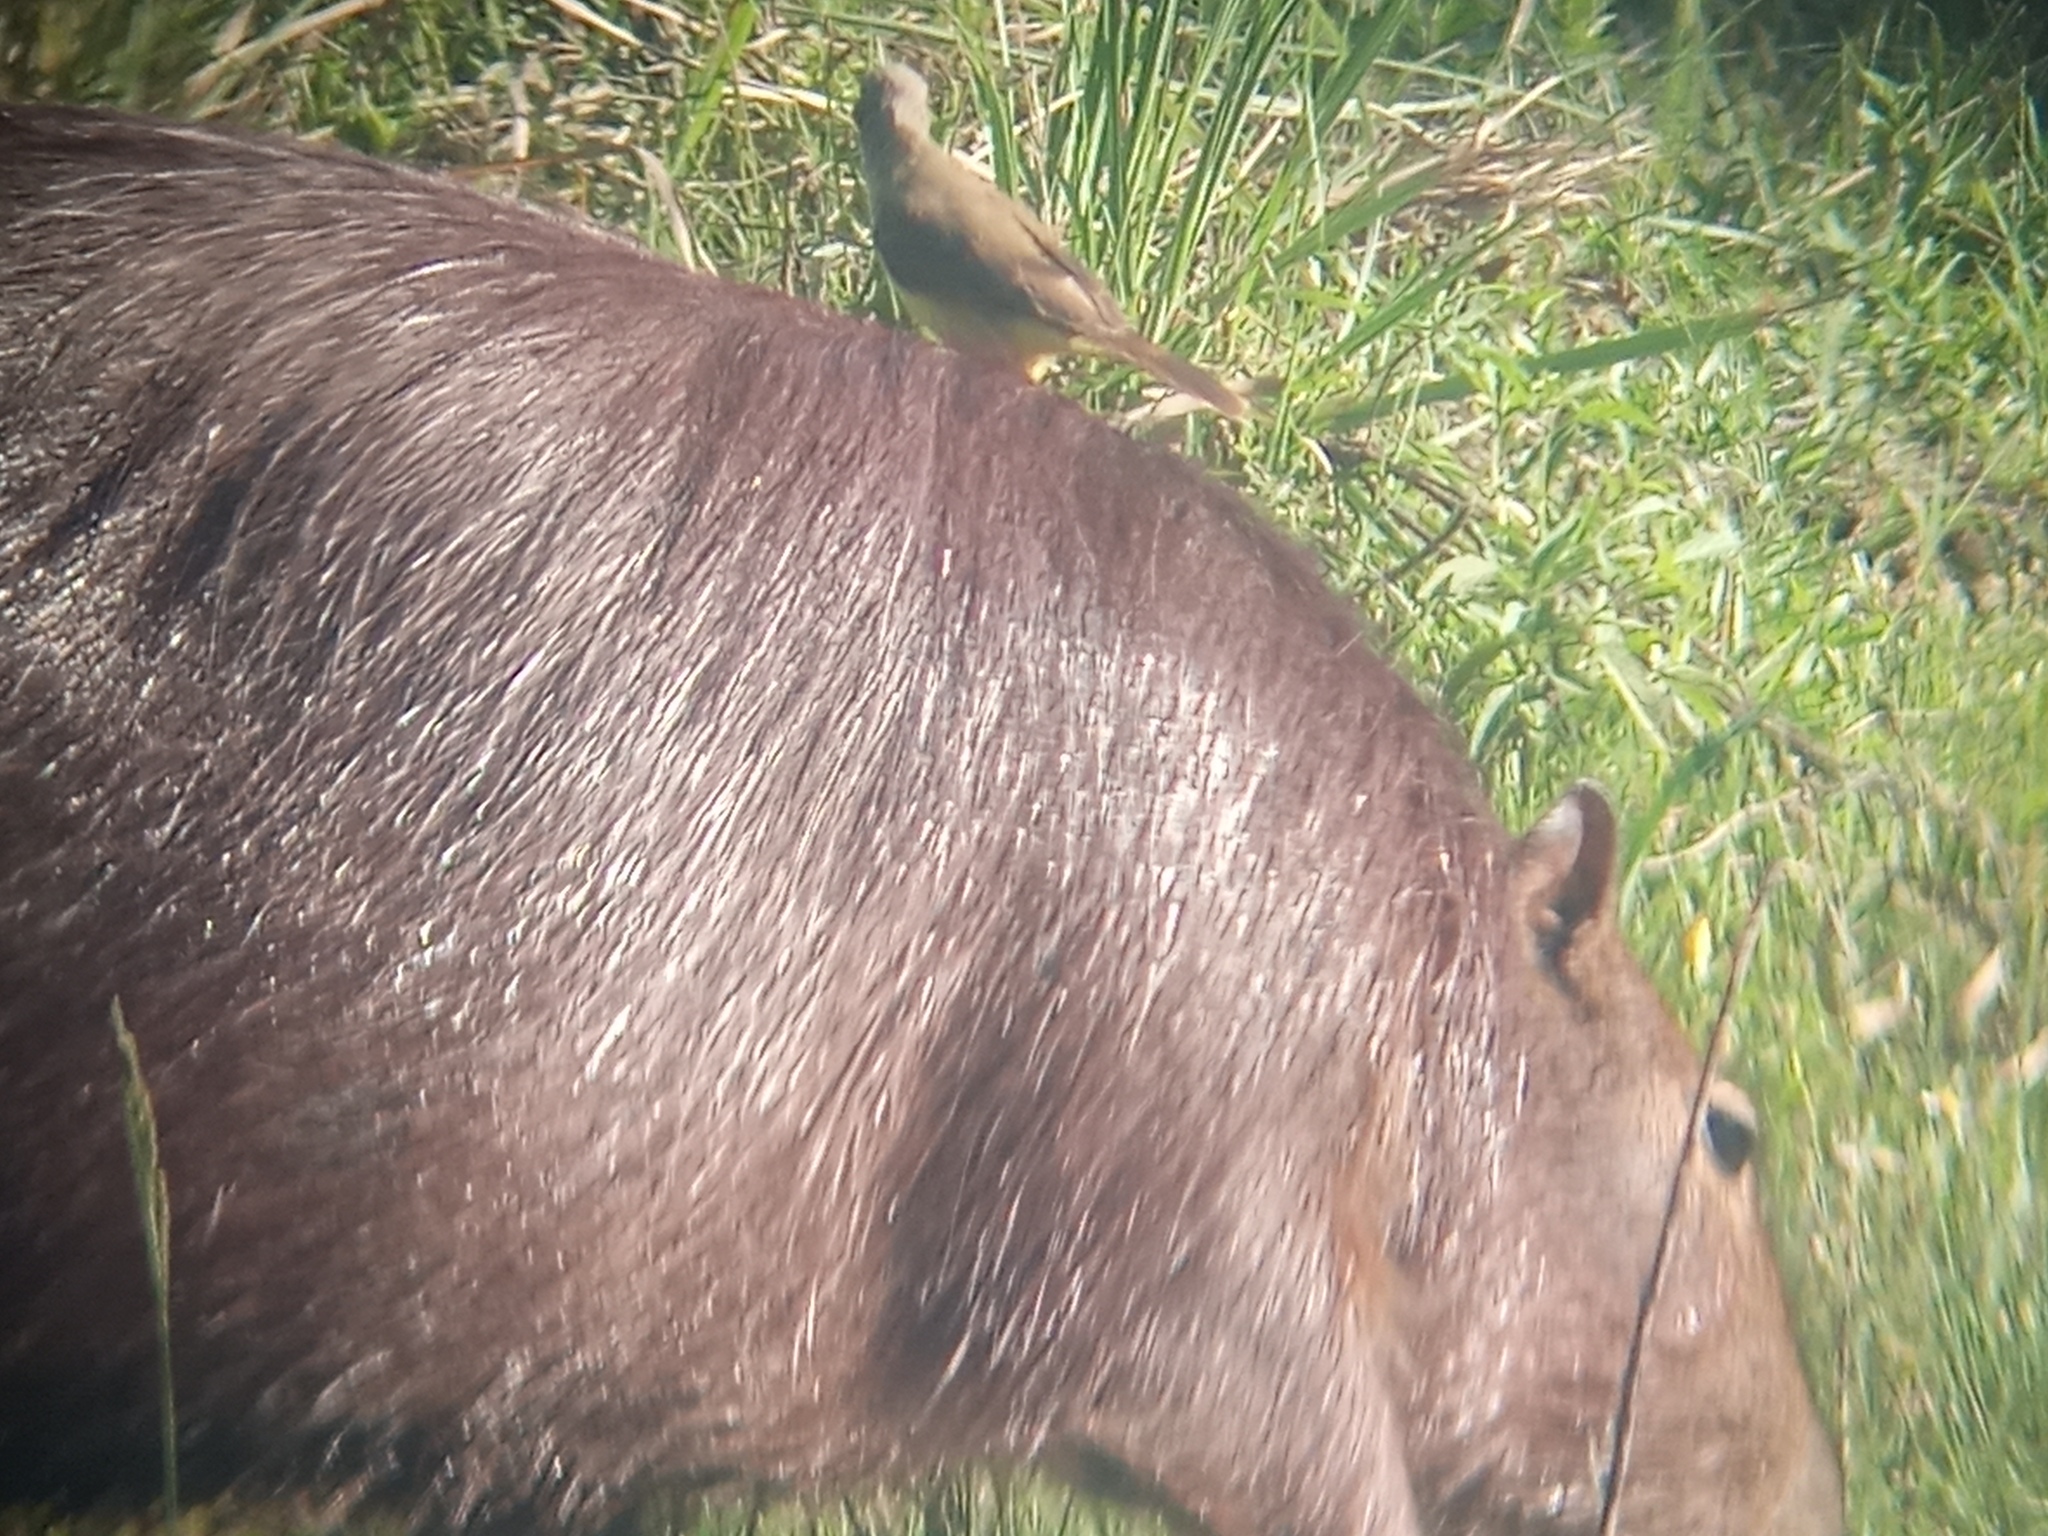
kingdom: Animalia
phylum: Chordata
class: Aves
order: Passeriformes
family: Tyrannidae
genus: Machetornis
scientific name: Machetornis rixosa
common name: Cattle tyrant
